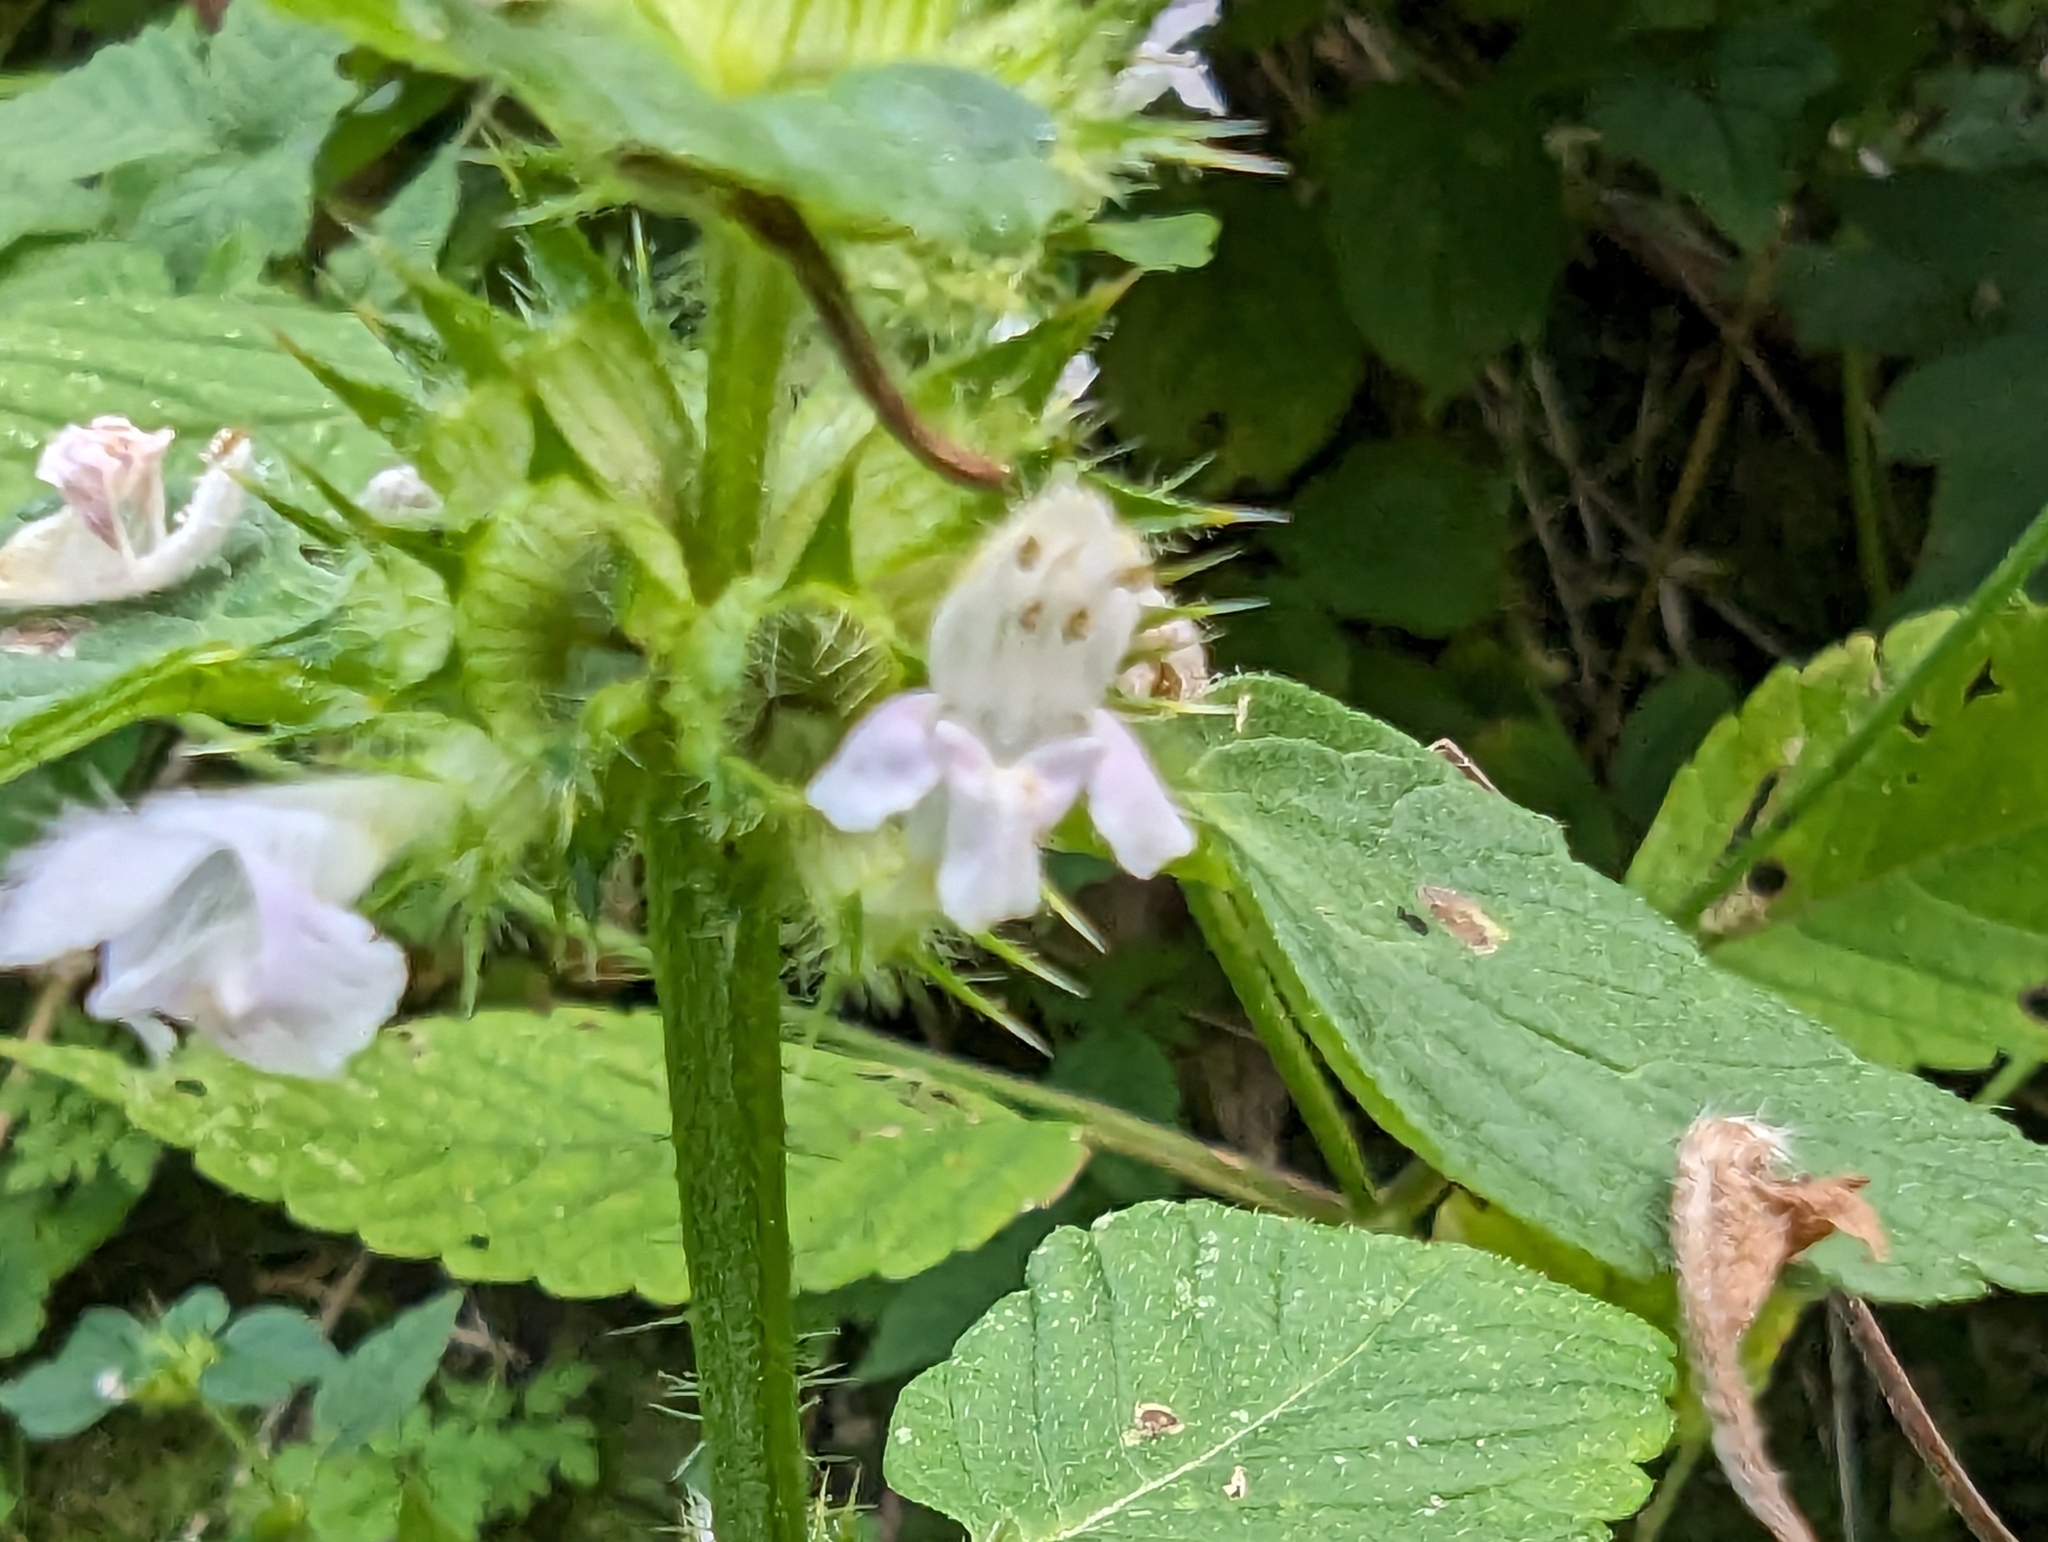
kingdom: Plantae
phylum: Tracheophyta
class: Magnoliopsida
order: Lamiales
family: Lamiaceae
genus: Galeopsis
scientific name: Galeopsis tetrahit
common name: Common hemp-nettle
